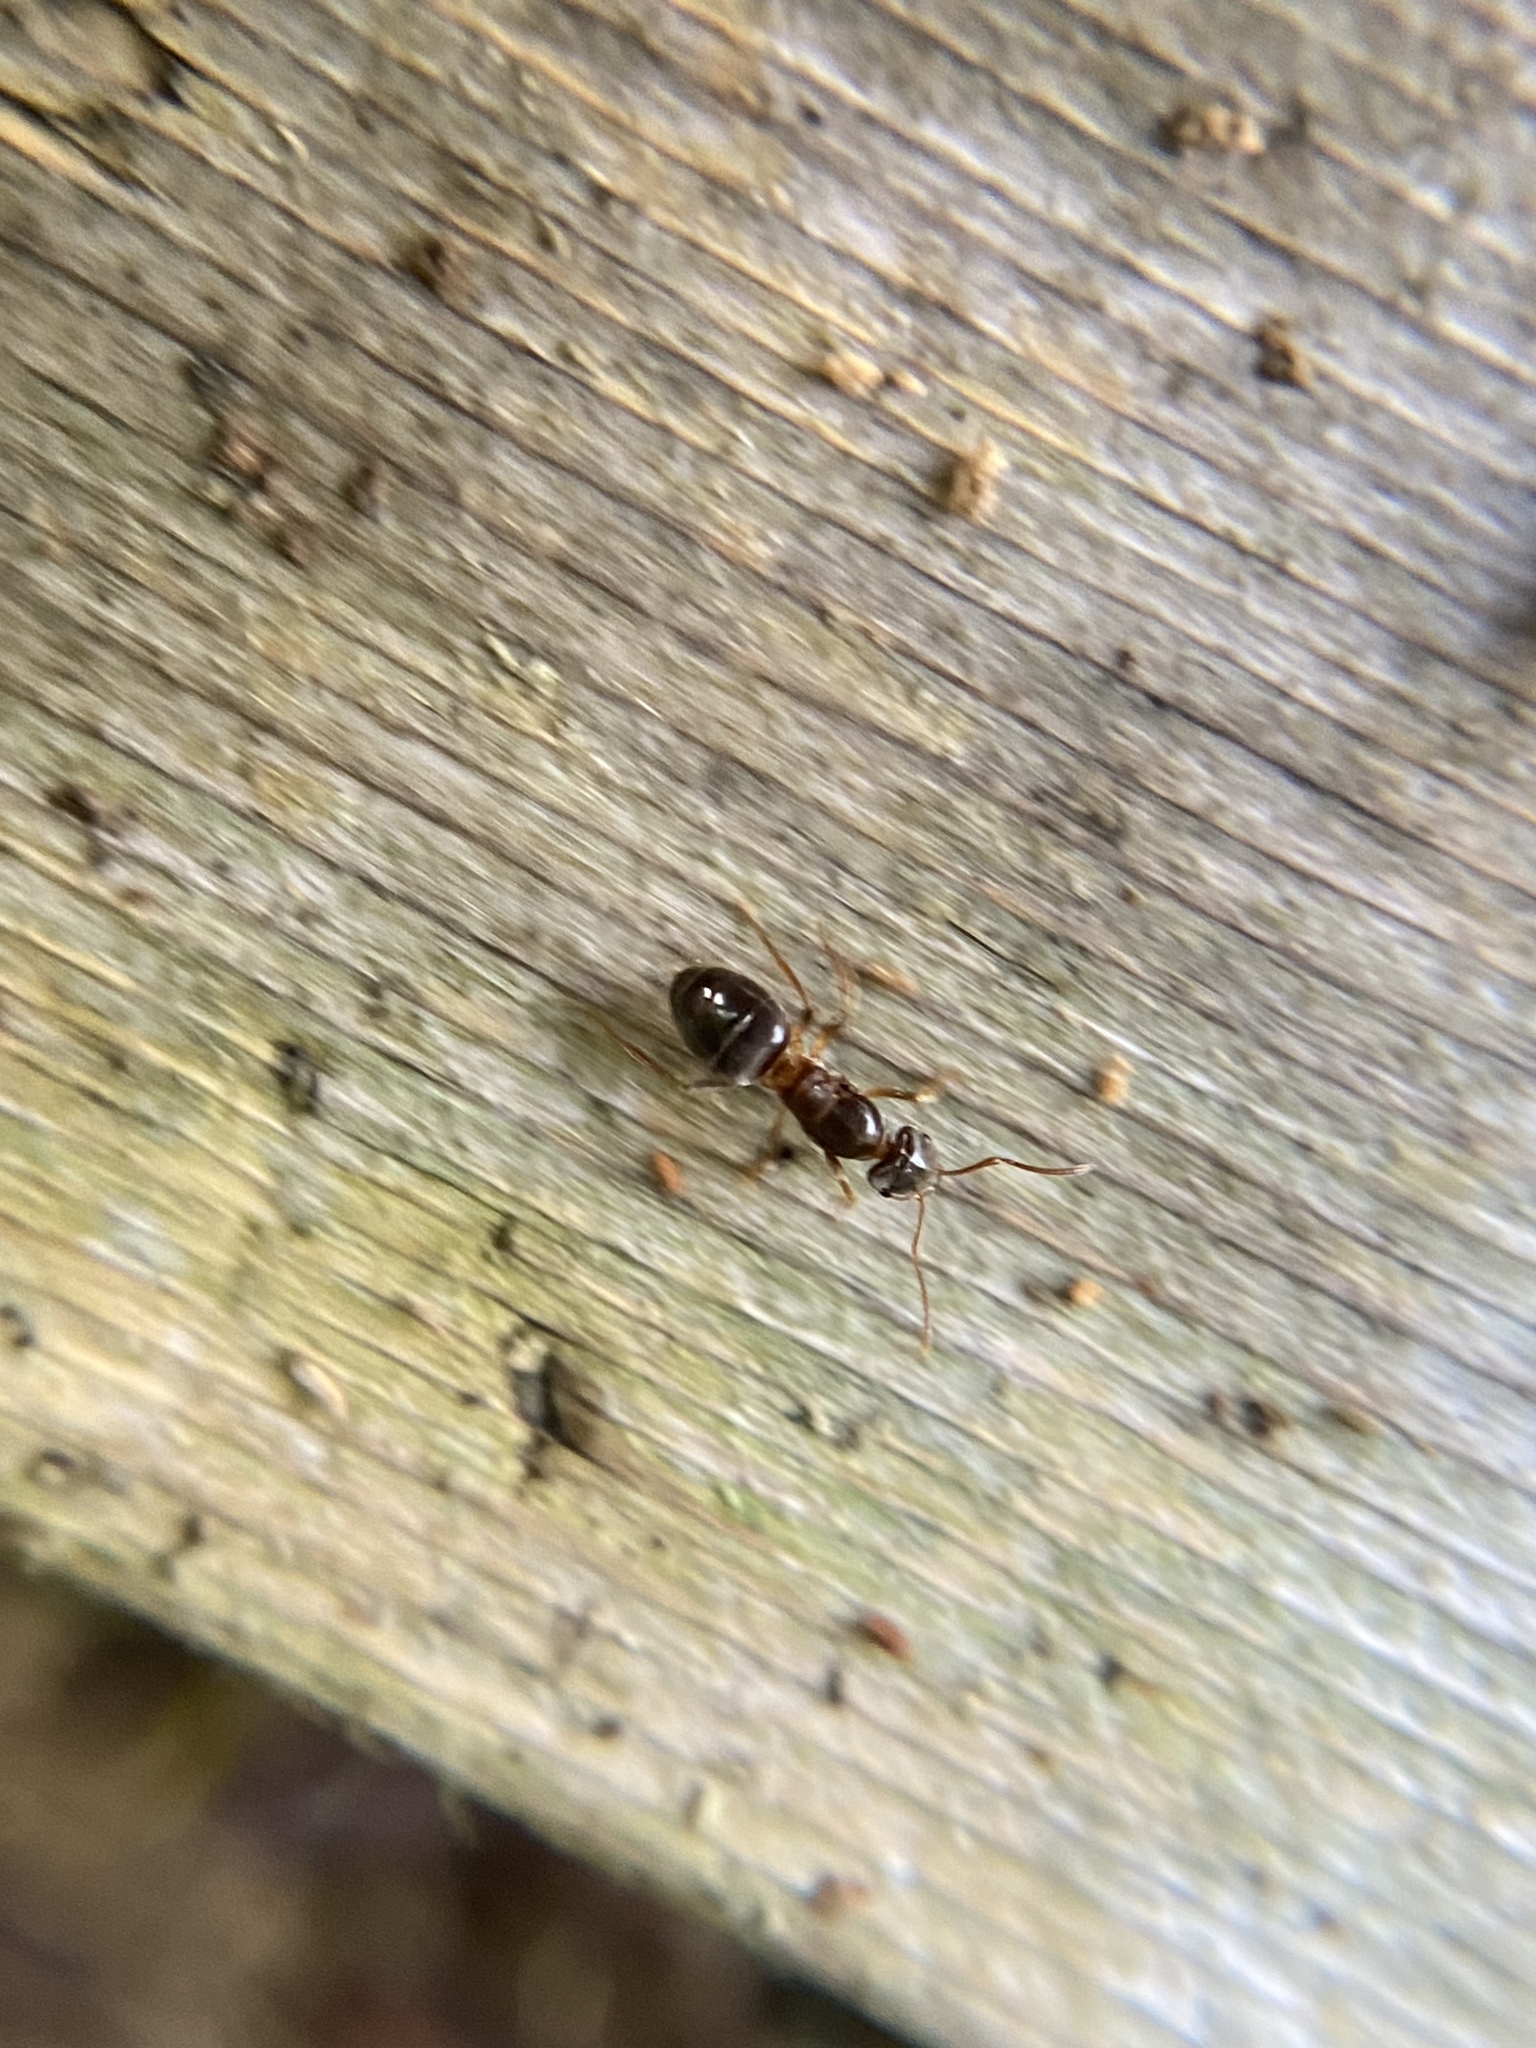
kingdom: Animalia
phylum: Arthropoda
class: Insecta
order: Hymenoptera
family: Formicidae
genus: Lasius
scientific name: Lasius aphidicola
